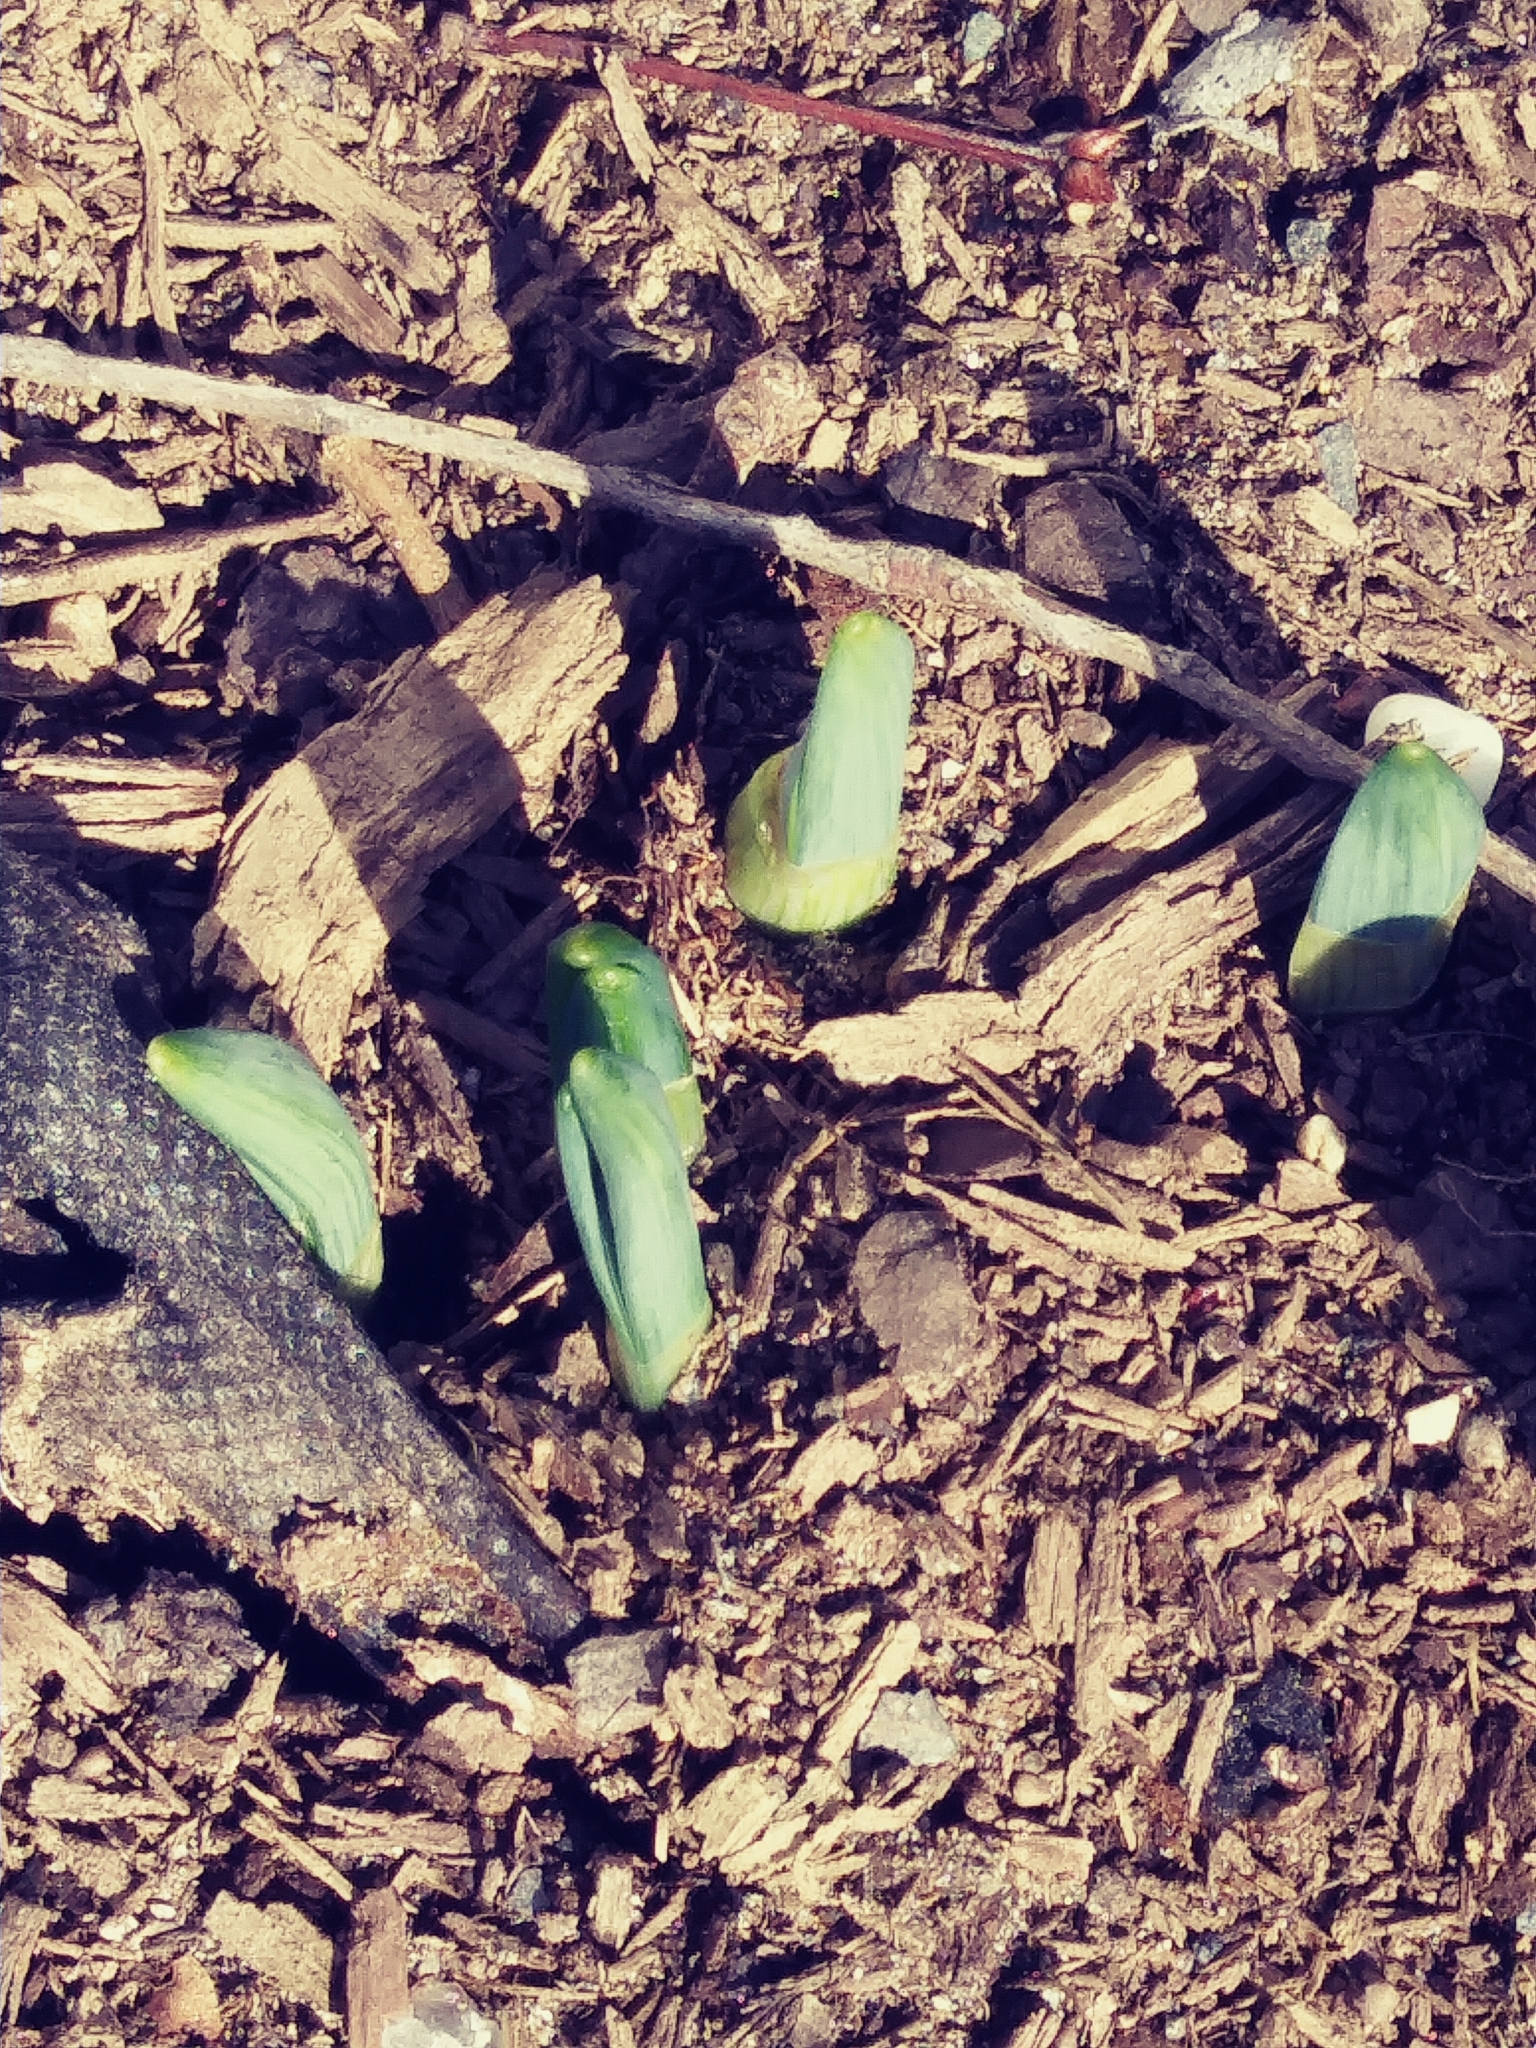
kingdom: Plantae
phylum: Tracheophyta
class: Liliopsida
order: Asparagales
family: Amaryllidaceae
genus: Narcissus
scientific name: Narcissus
